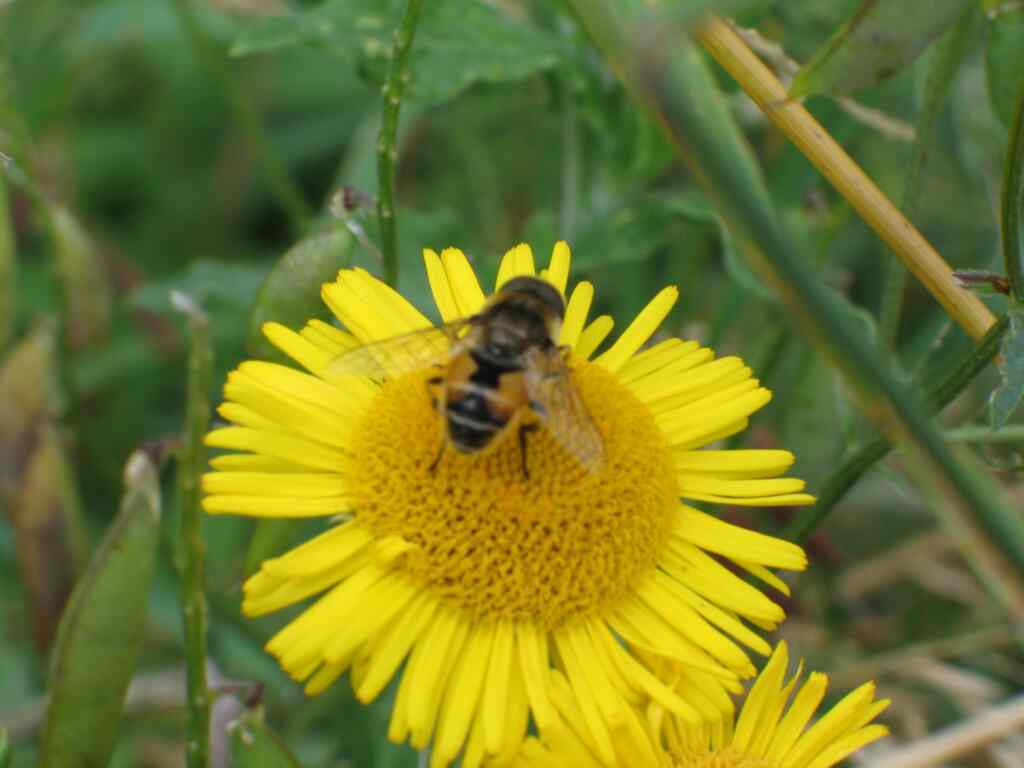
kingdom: Animalia
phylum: Arthropoda
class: Insecta
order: Diptera
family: Syrphidae
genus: Eoseristalis
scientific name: Eoseristalis
